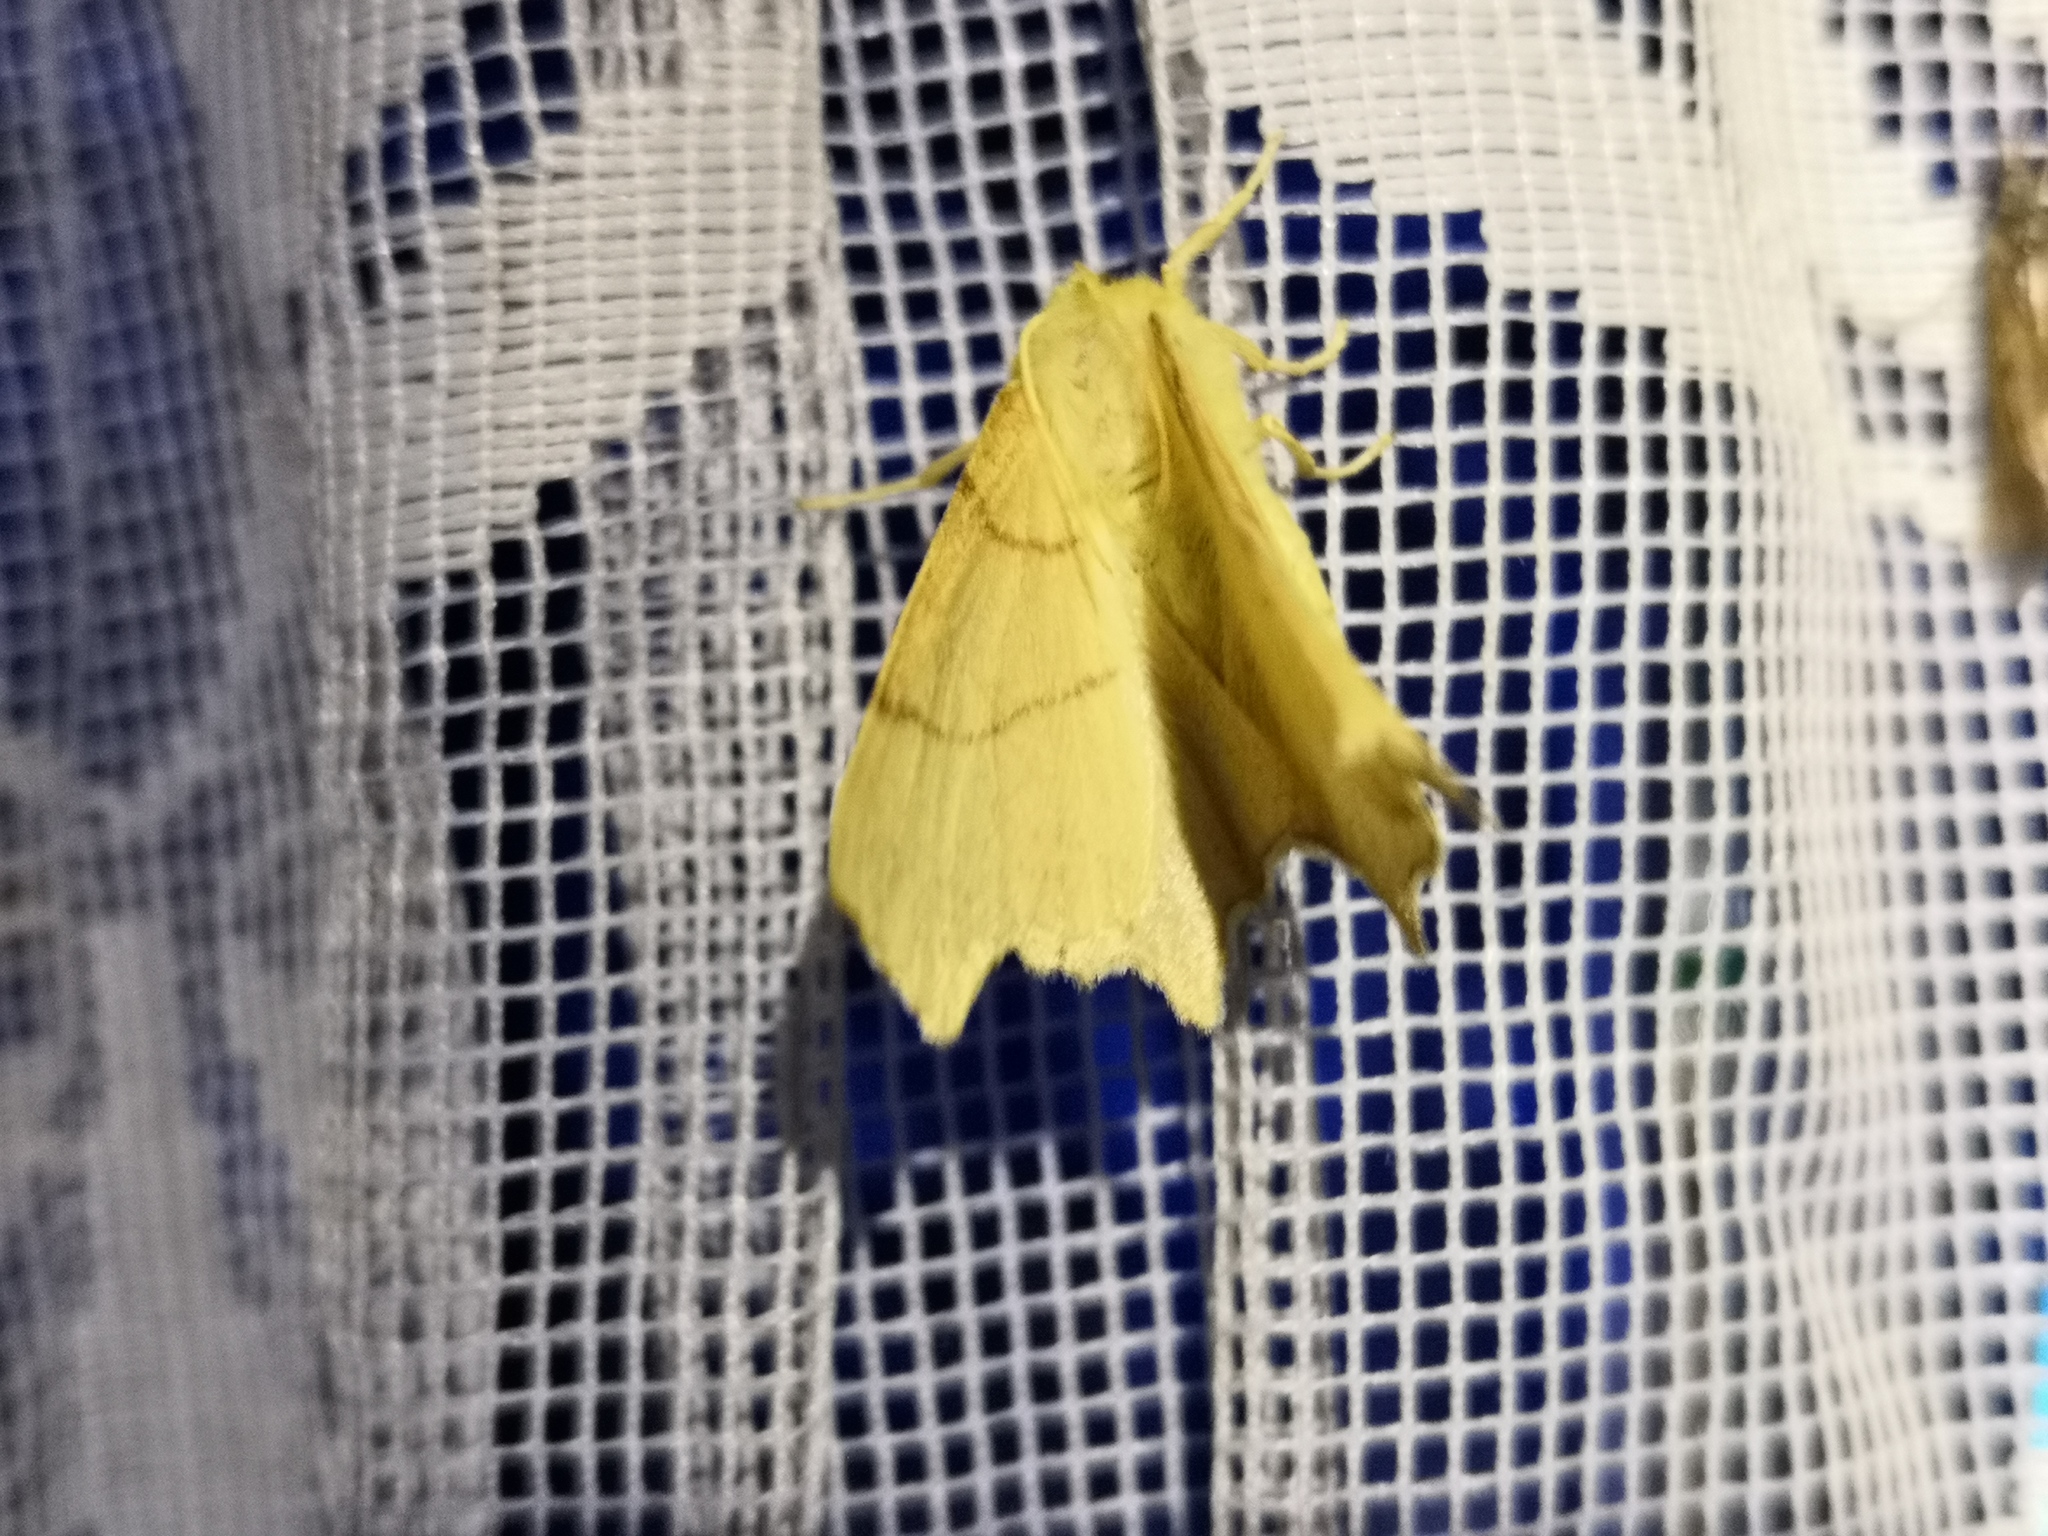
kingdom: Animalia
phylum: Arthropoda
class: Insecta
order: Lepidoptera
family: Geometridae
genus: Ennomos
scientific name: Ennomos erosaria
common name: September thorn
